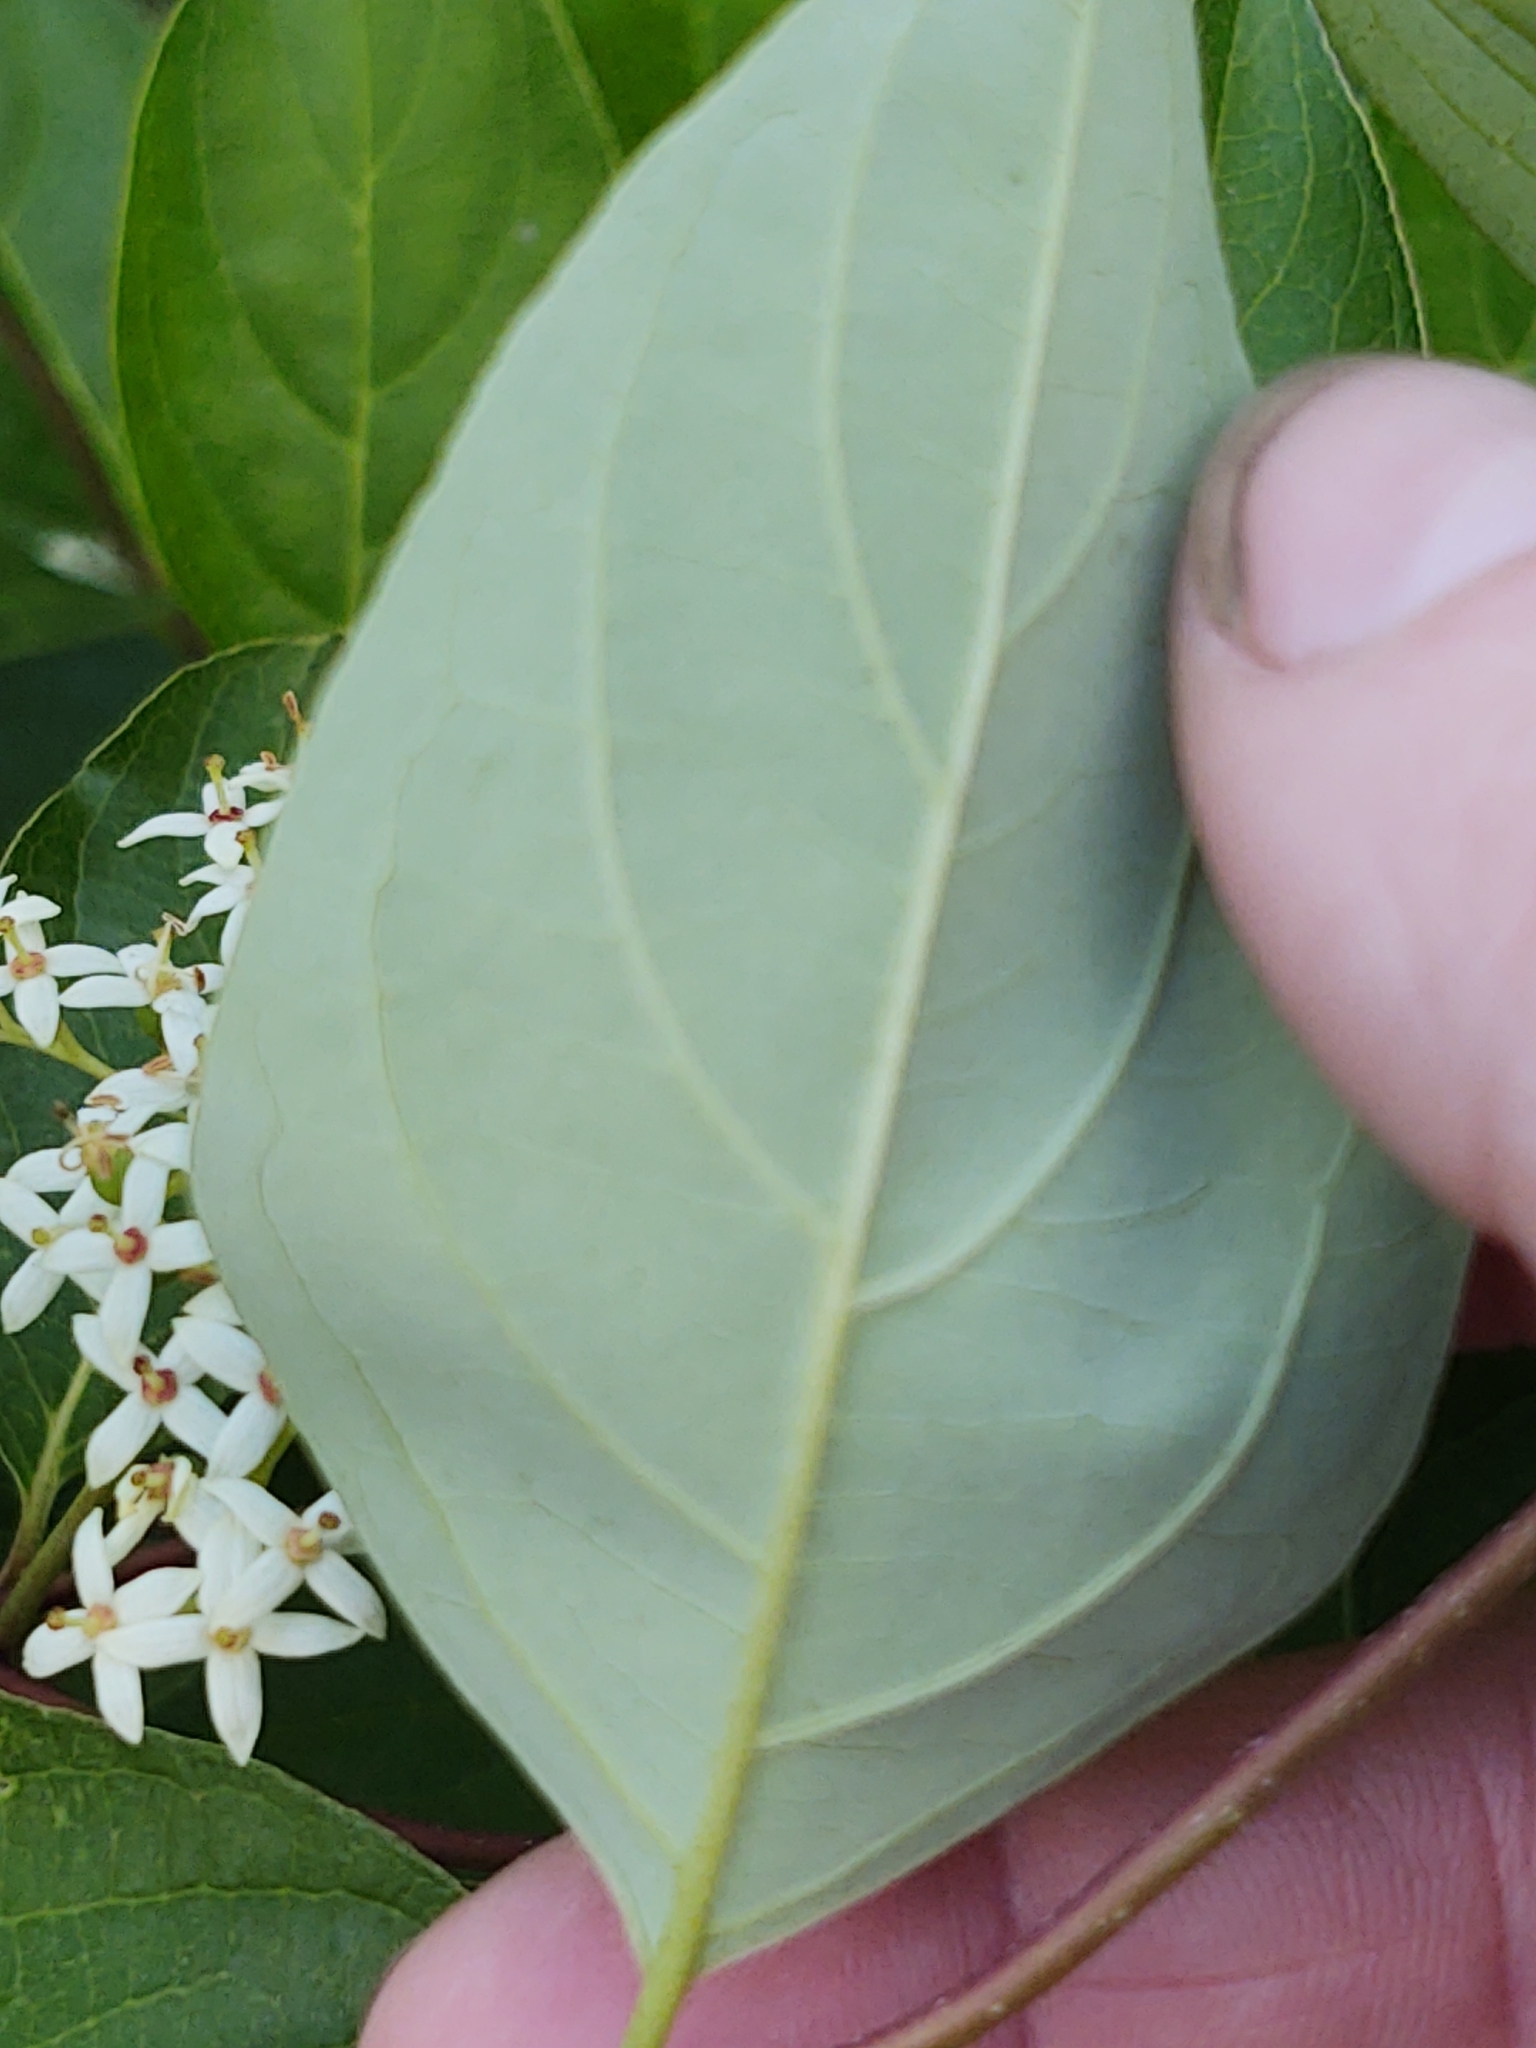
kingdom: Plantae
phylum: Tracheophyta
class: Magnoliopsida
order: Cornales
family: Cornaceae
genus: Cornus
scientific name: Cornus racemosa
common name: Panicled dogwood
